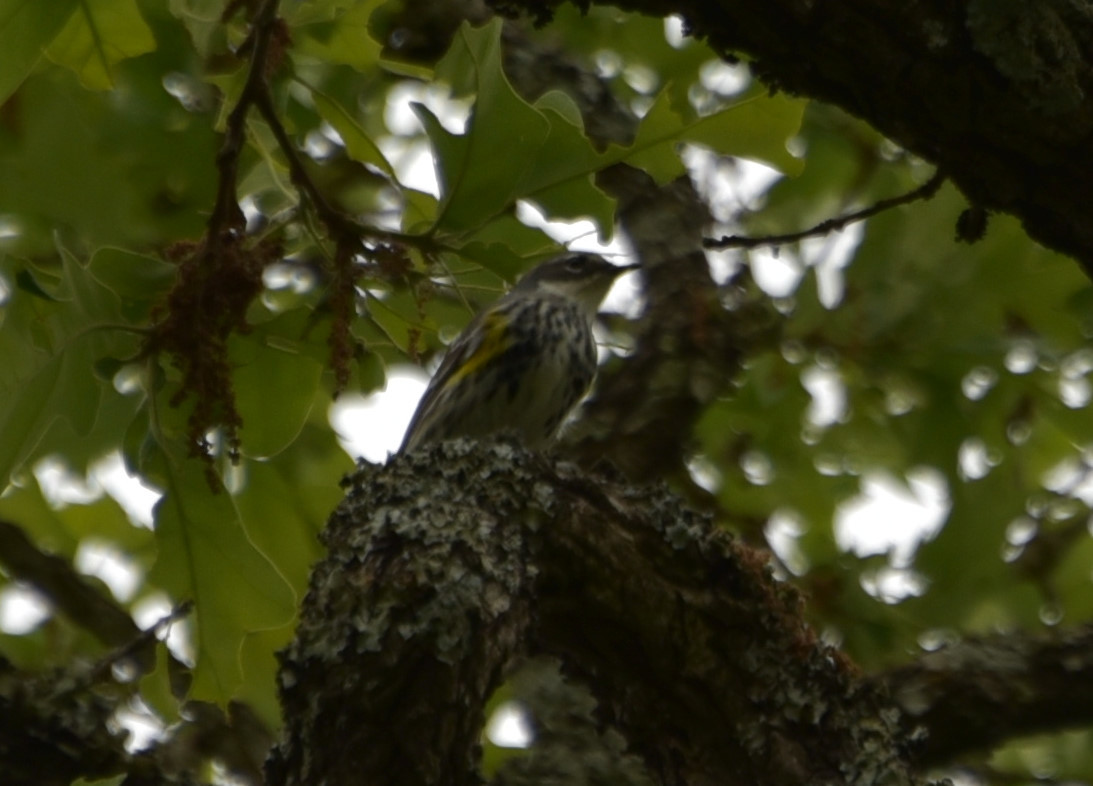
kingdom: Animalia
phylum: Chordata
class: Aves
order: Passeriformes
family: Parulidae
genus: Setophaga
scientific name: Setophaga coronata
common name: Myrtle warbler
